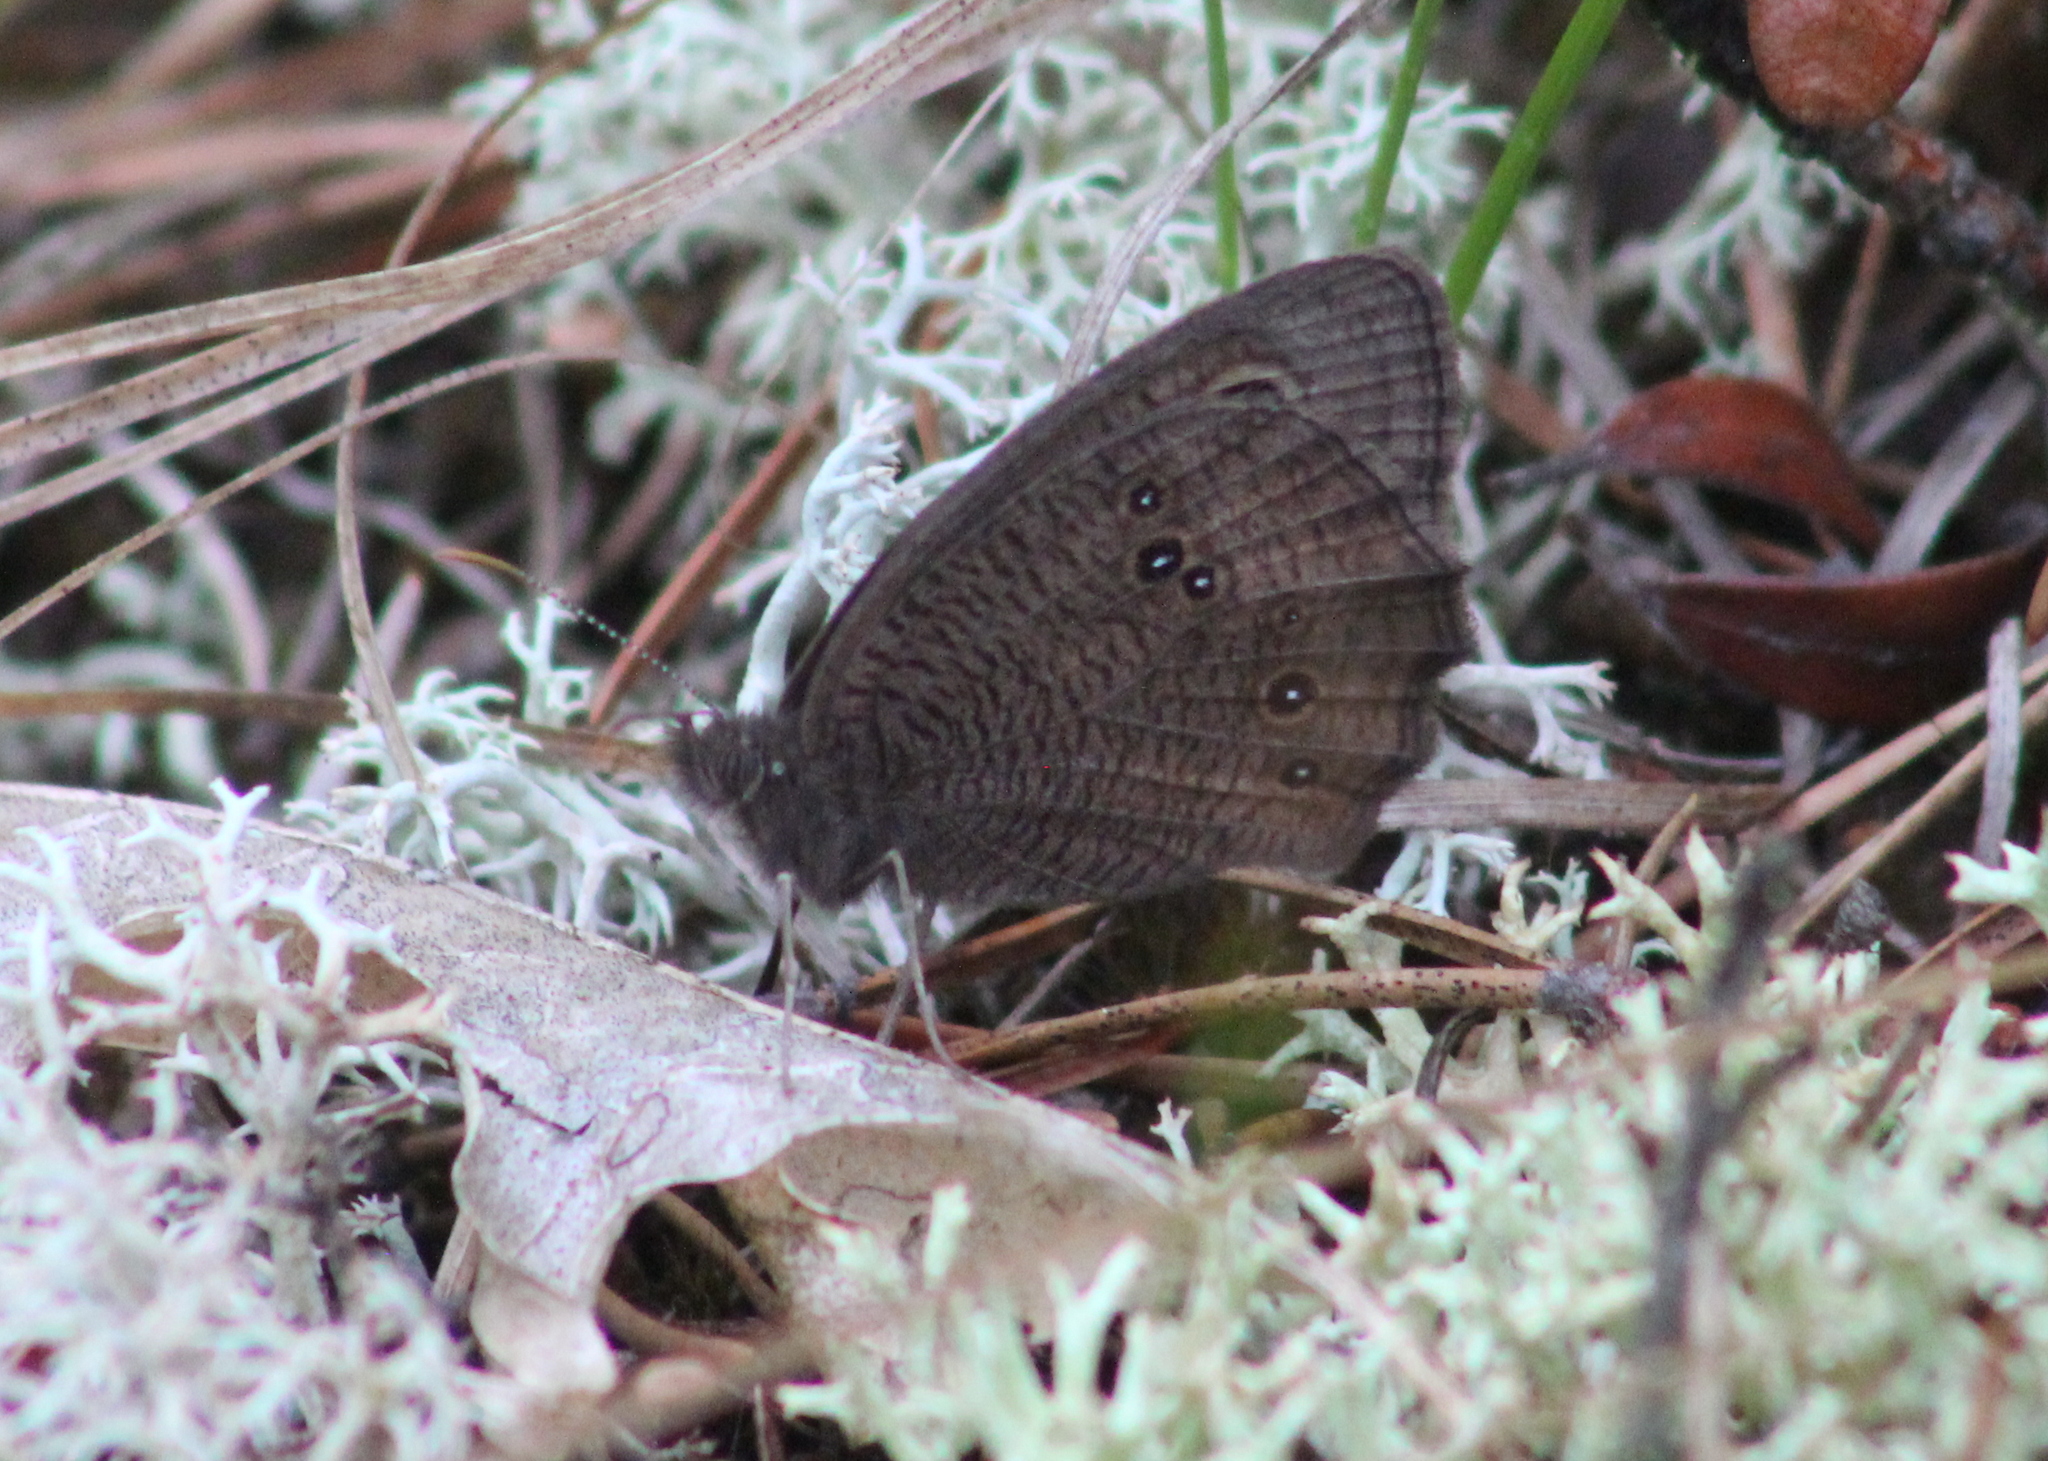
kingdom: Animalia
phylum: Arthropoda
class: Insecta
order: Lepidoptera
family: Nymphalidae
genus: Cercyonis
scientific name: Cercyonis pegala
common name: Common wood-nymph
